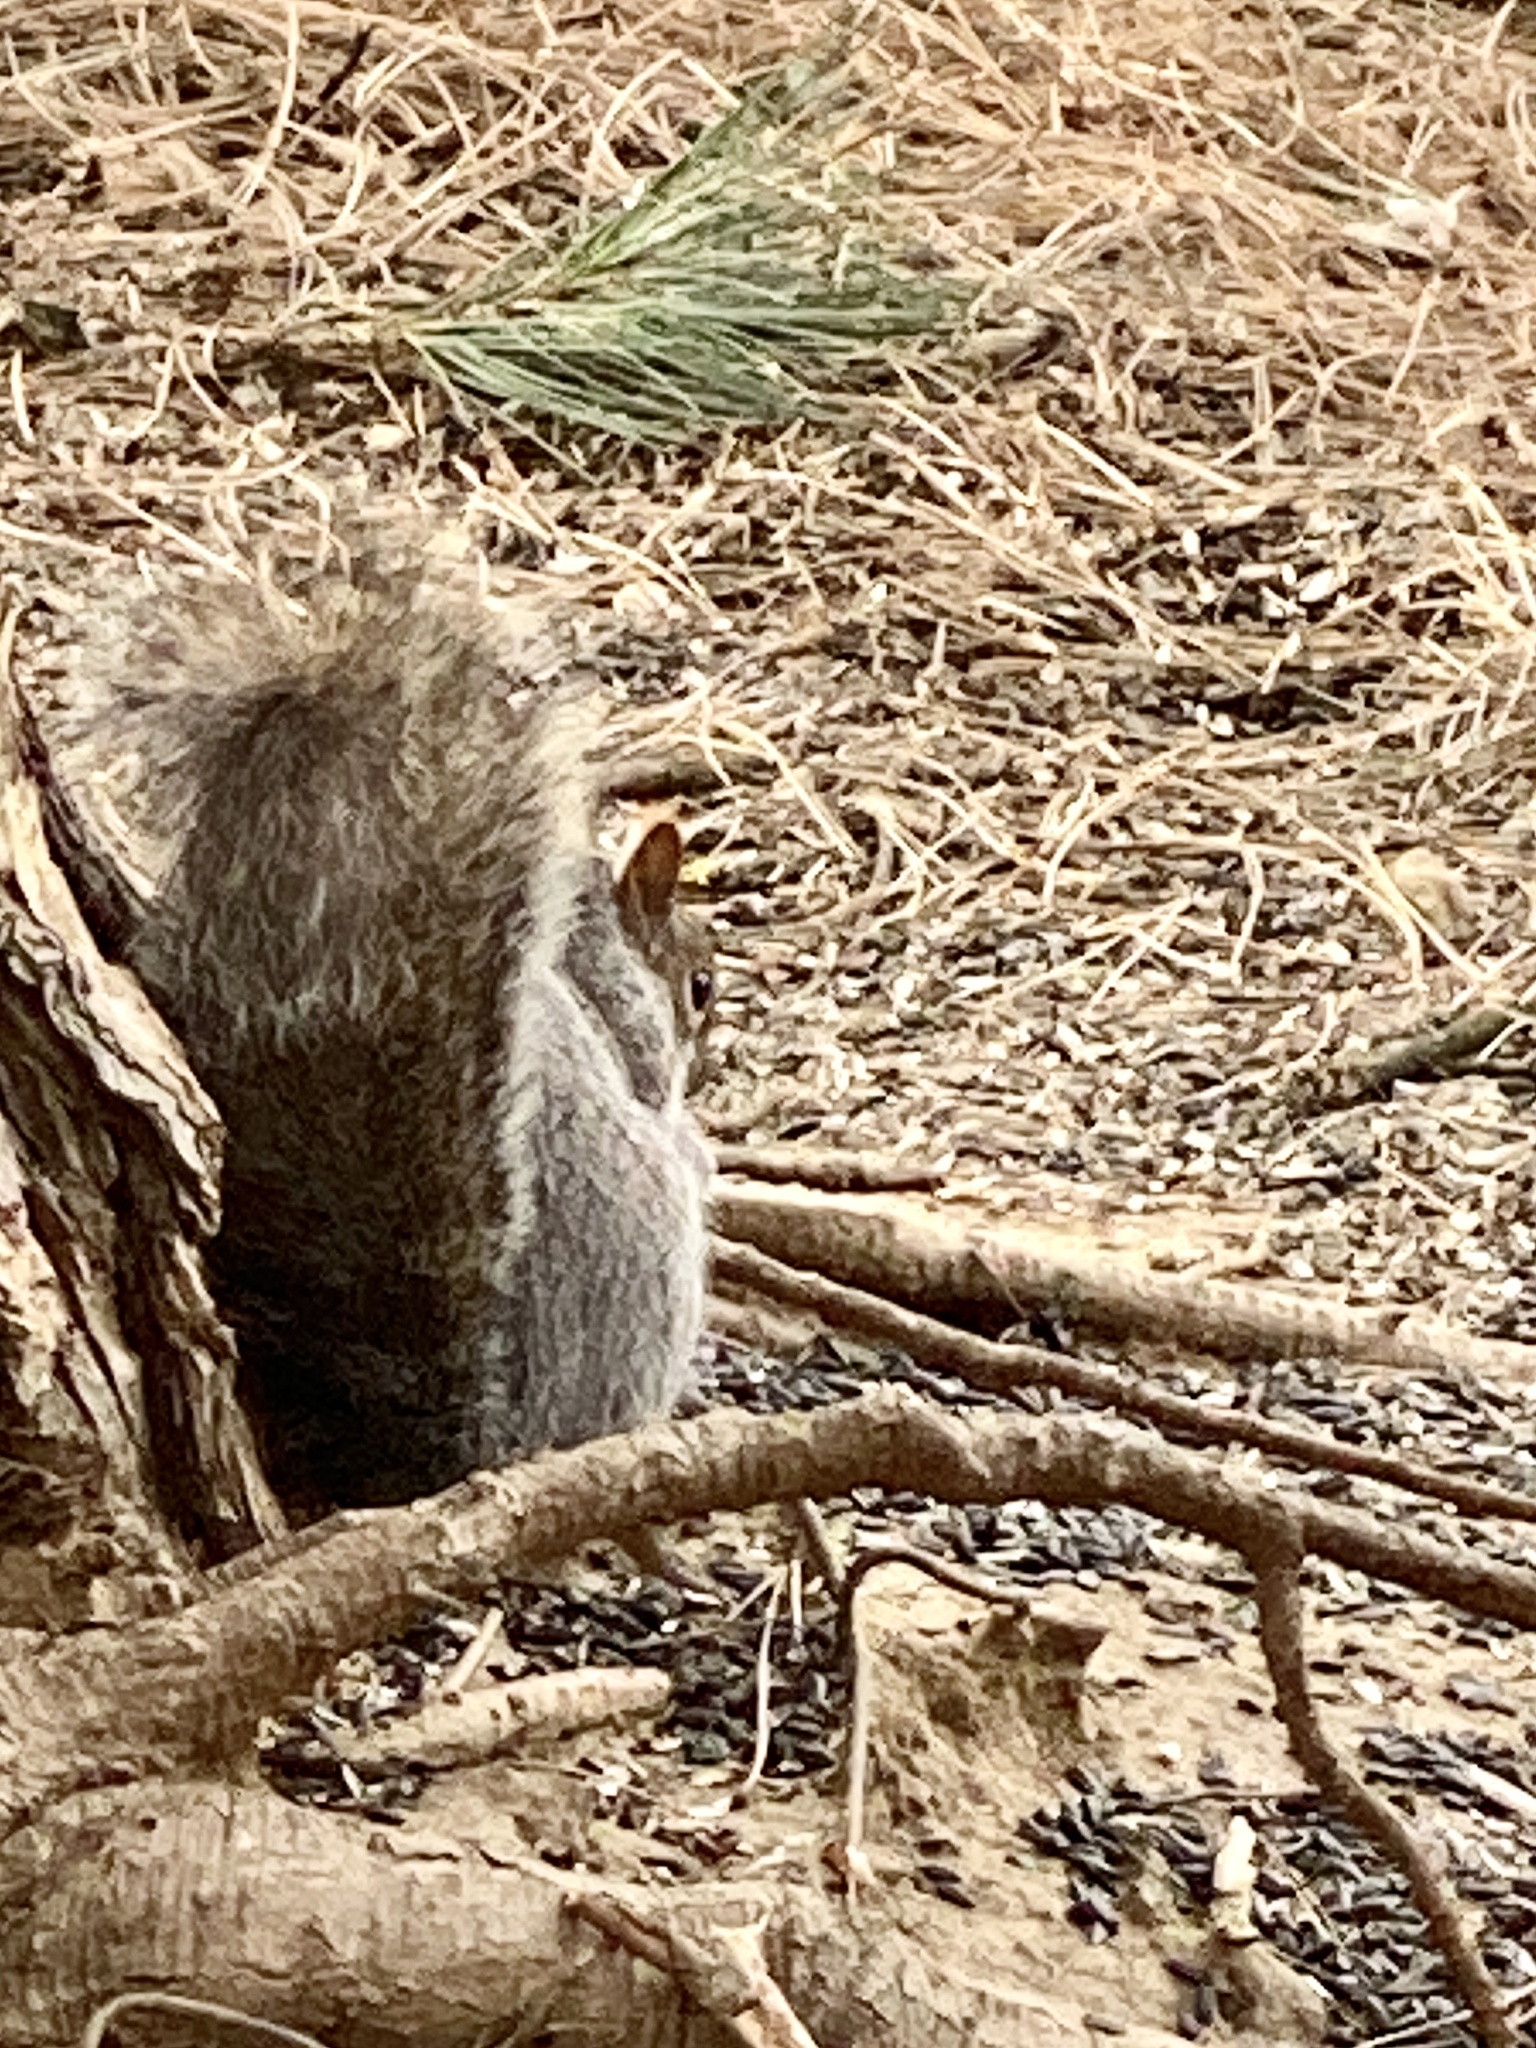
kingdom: Animalia
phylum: Chordata
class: Mammalia
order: Rodentia
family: Sciuridae
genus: Sciurus
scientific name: Sciurus carolinensis
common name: Eastern gray squirrel
